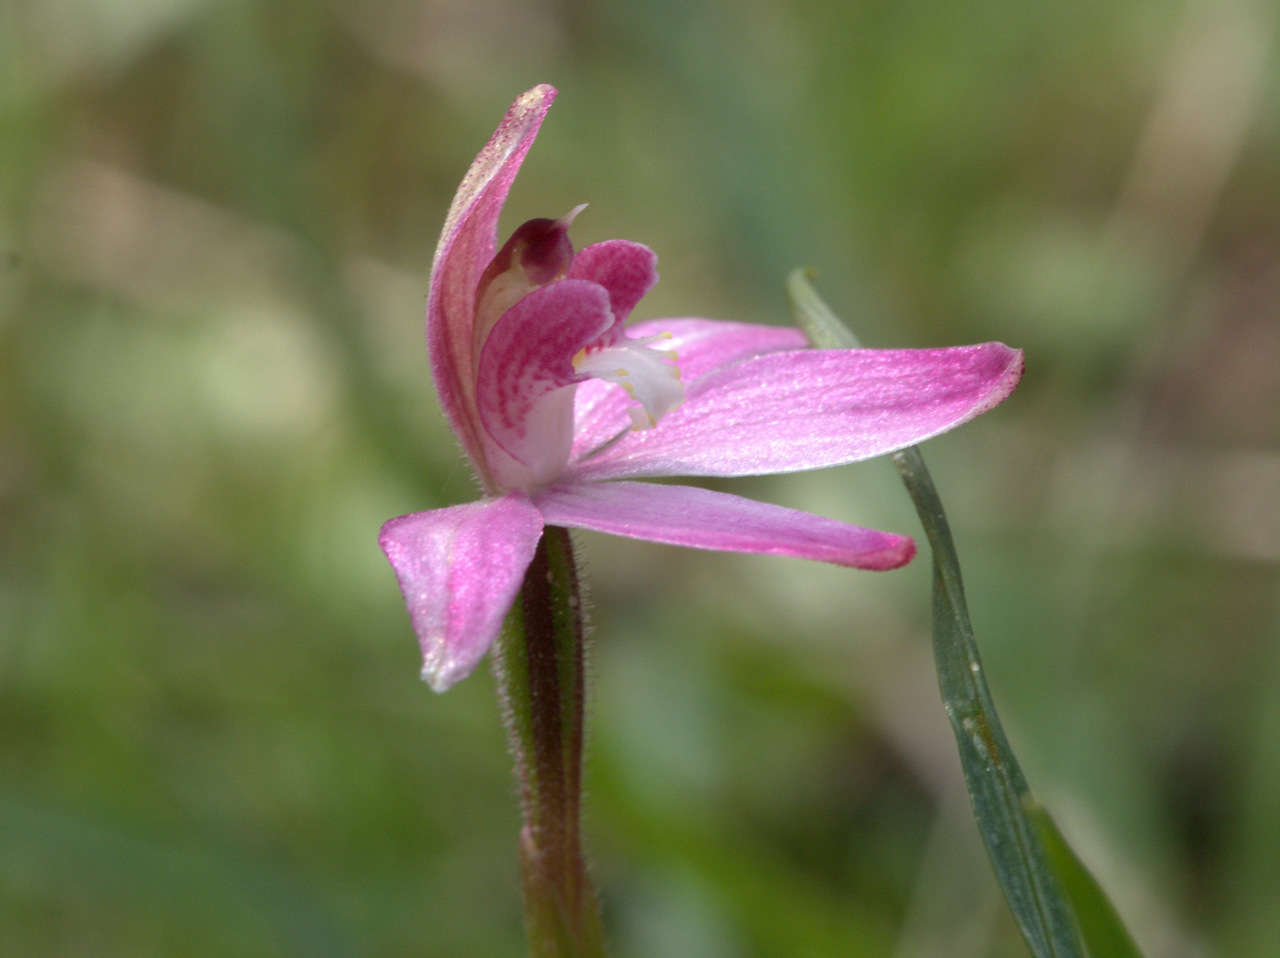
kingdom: Plantae
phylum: Tracheophyta
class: Liliopsida
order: Asparagales
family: Orchidaceae
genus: Caladenia
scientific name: Caladenia fuscata
